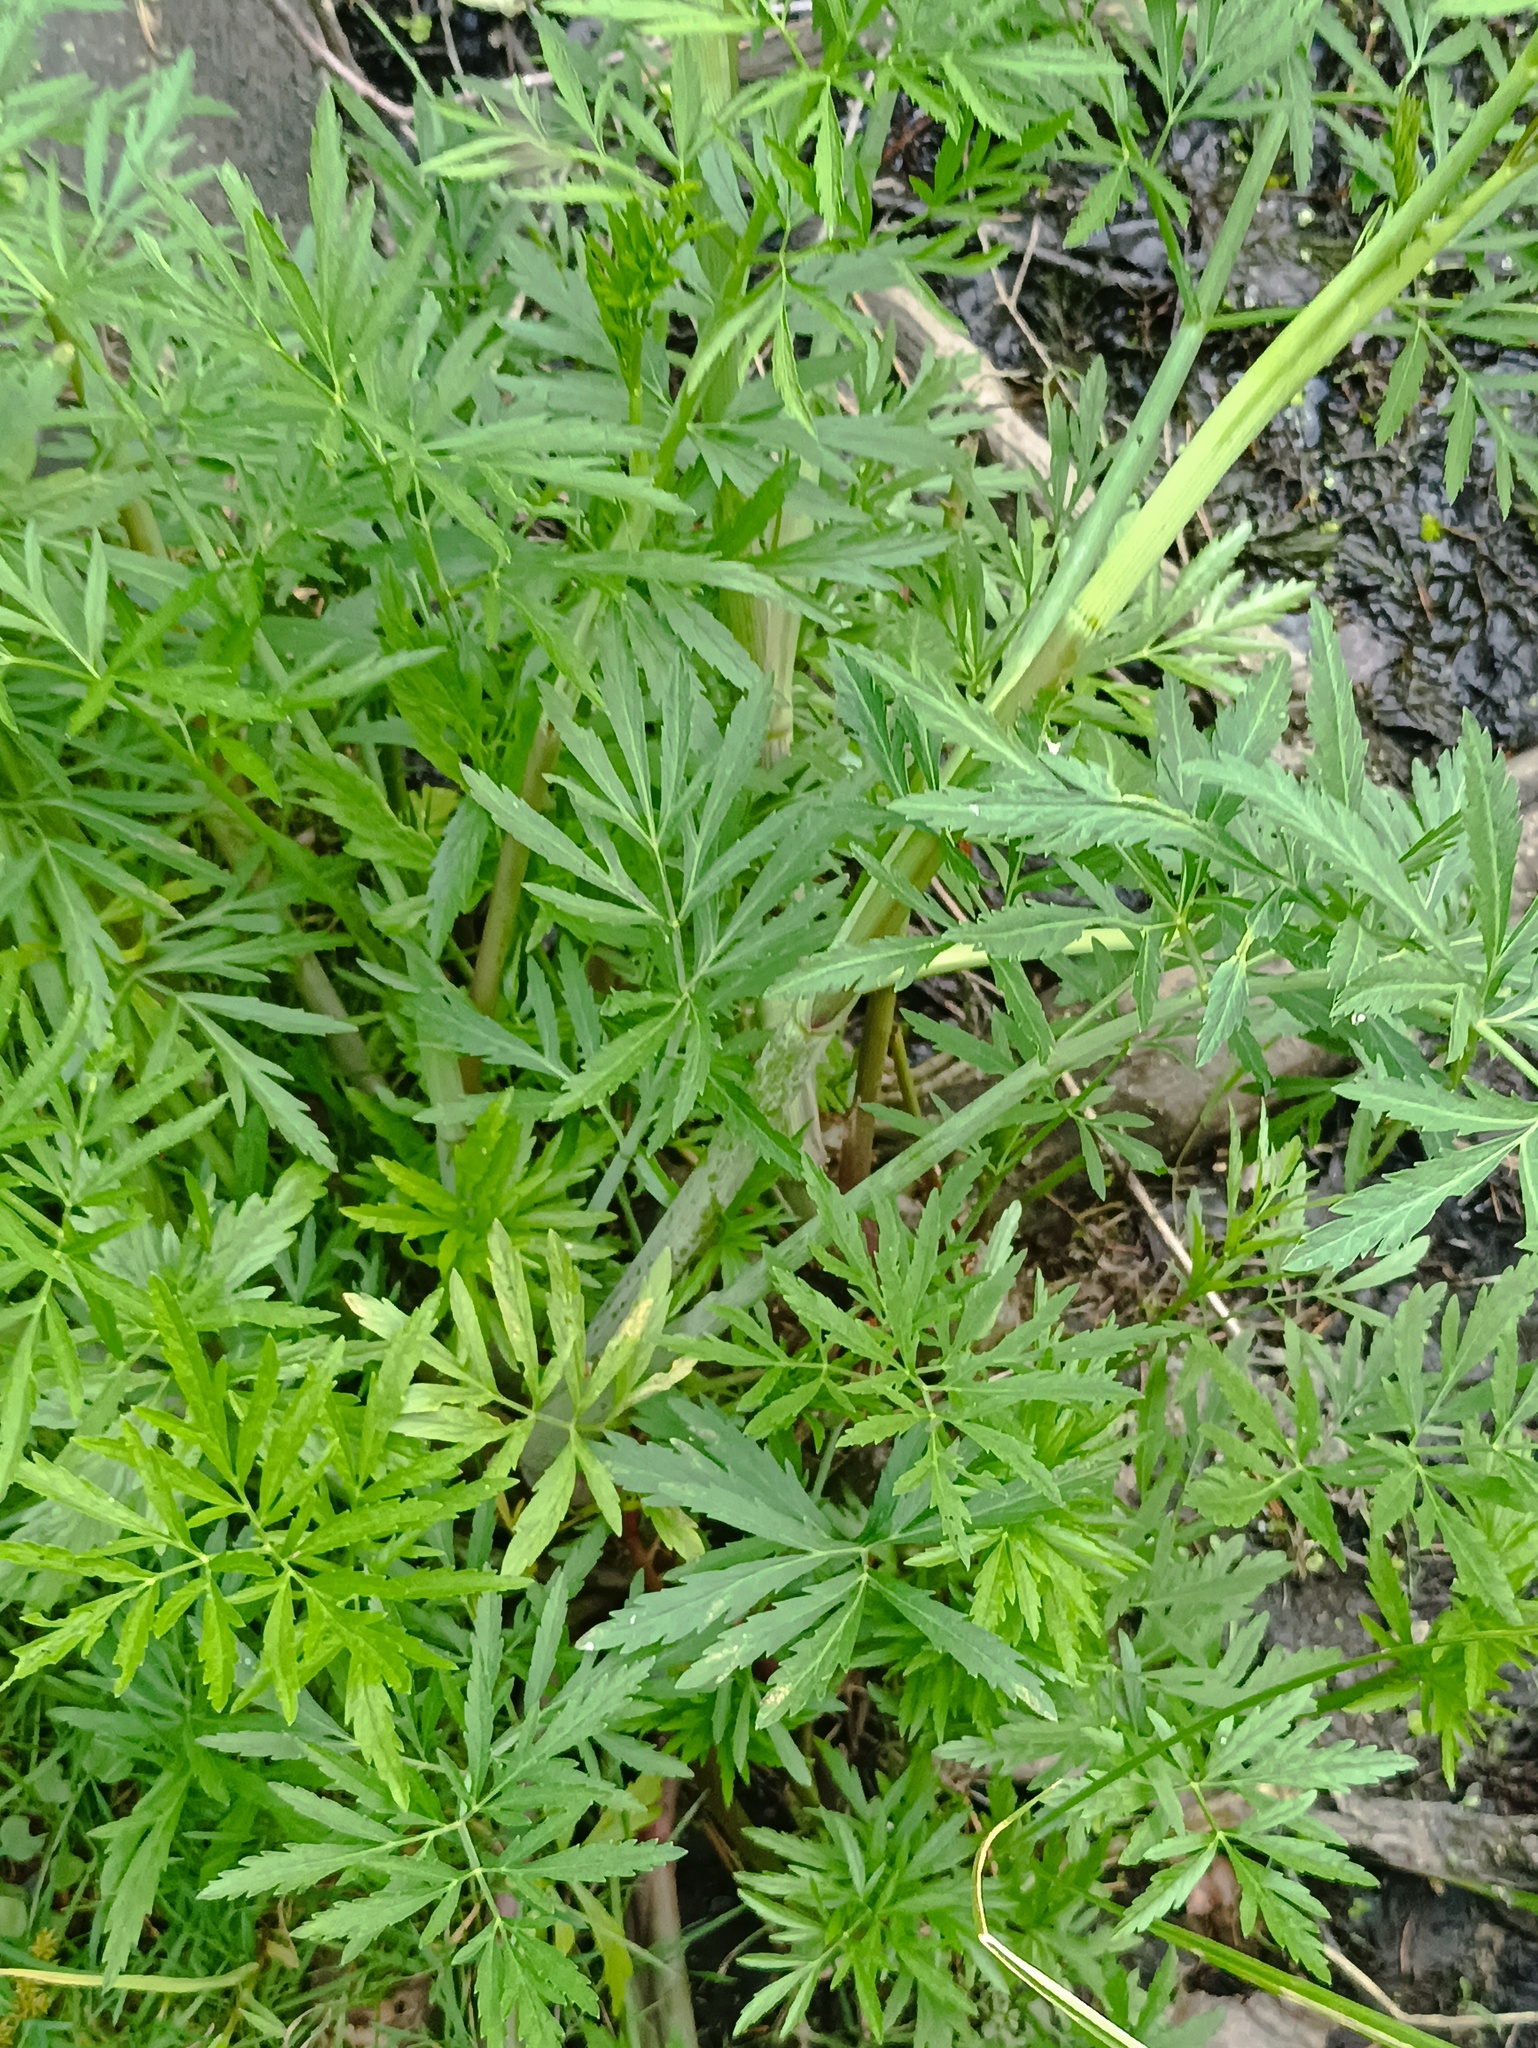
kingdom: Plantae
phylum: Tracheophyta
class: Magnoliopsida
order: Apiales
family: Apiaceae
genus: Cicuta
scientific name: Cicuta virosa
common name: Cowbane
